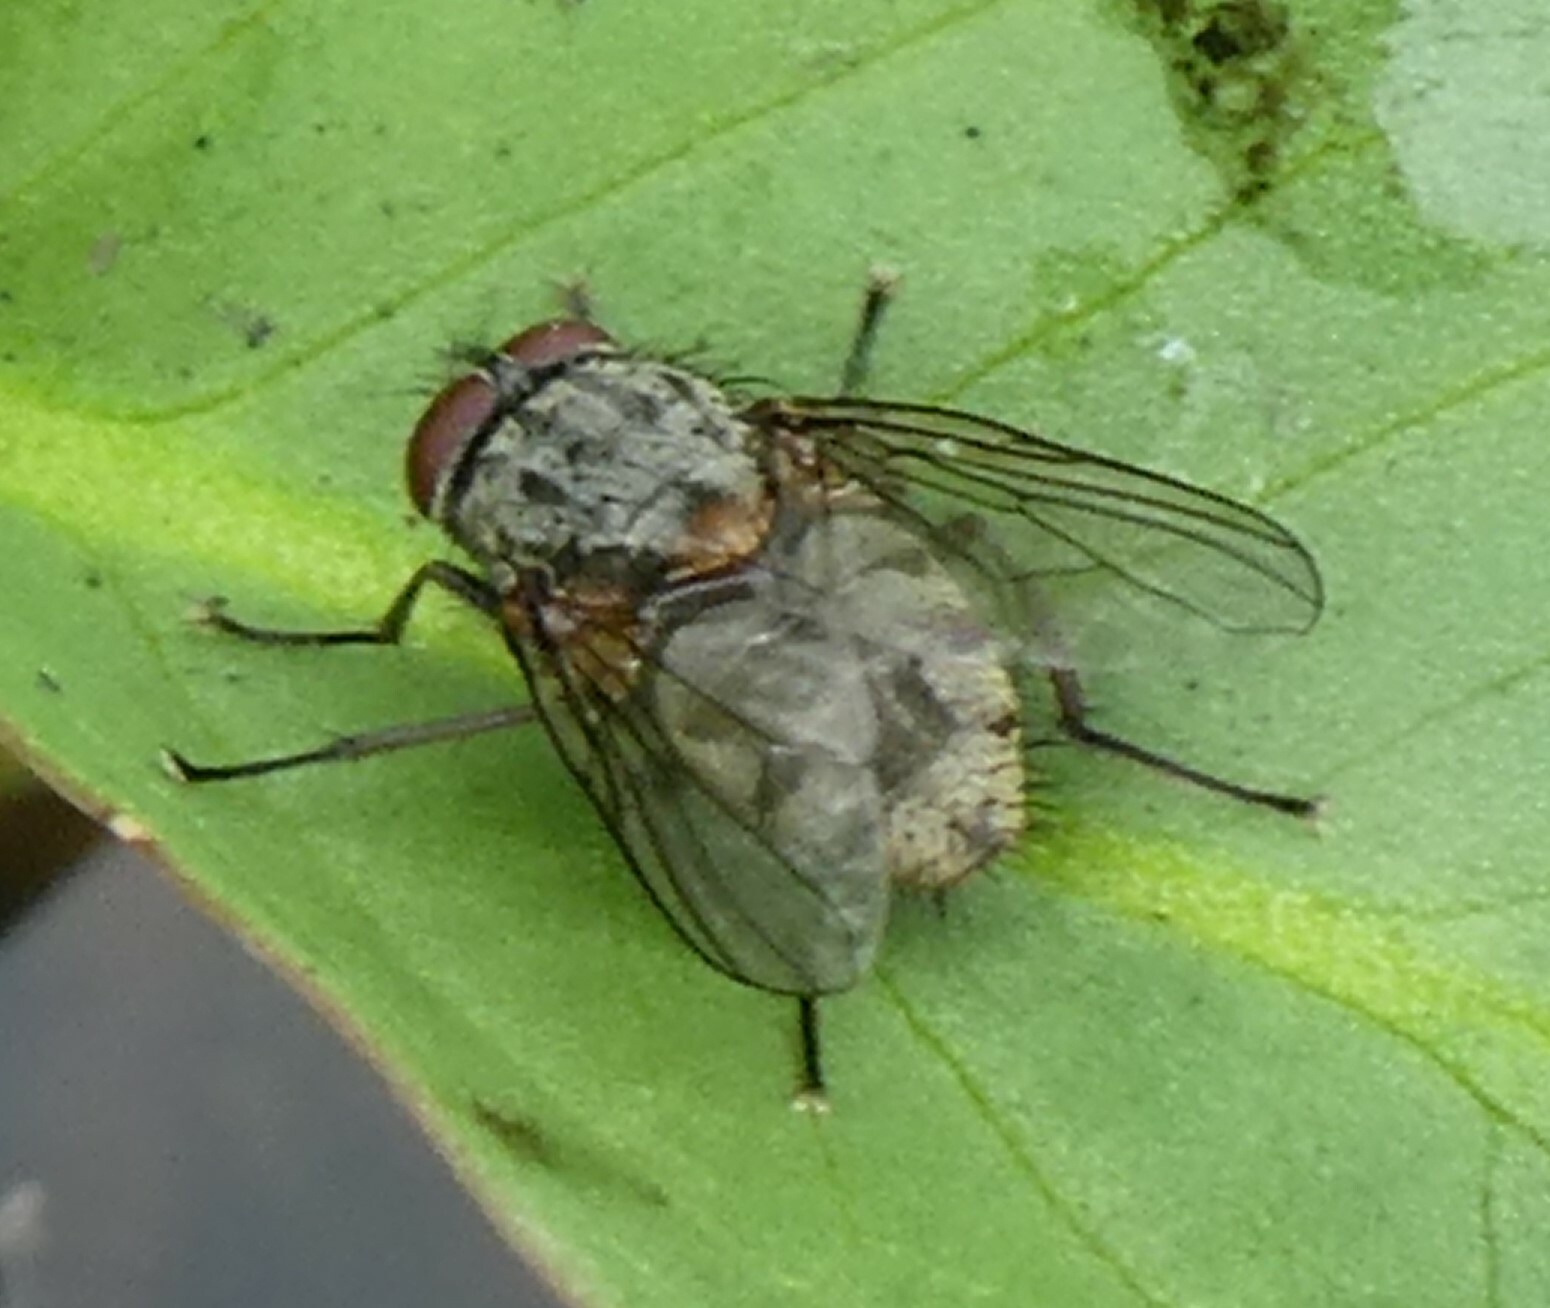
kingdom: Animalia
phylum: Arthropoda
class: Insecta
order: Diptera
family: Muscidae
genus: Muscina
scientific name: Muscina stabulans
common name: False stable fly
